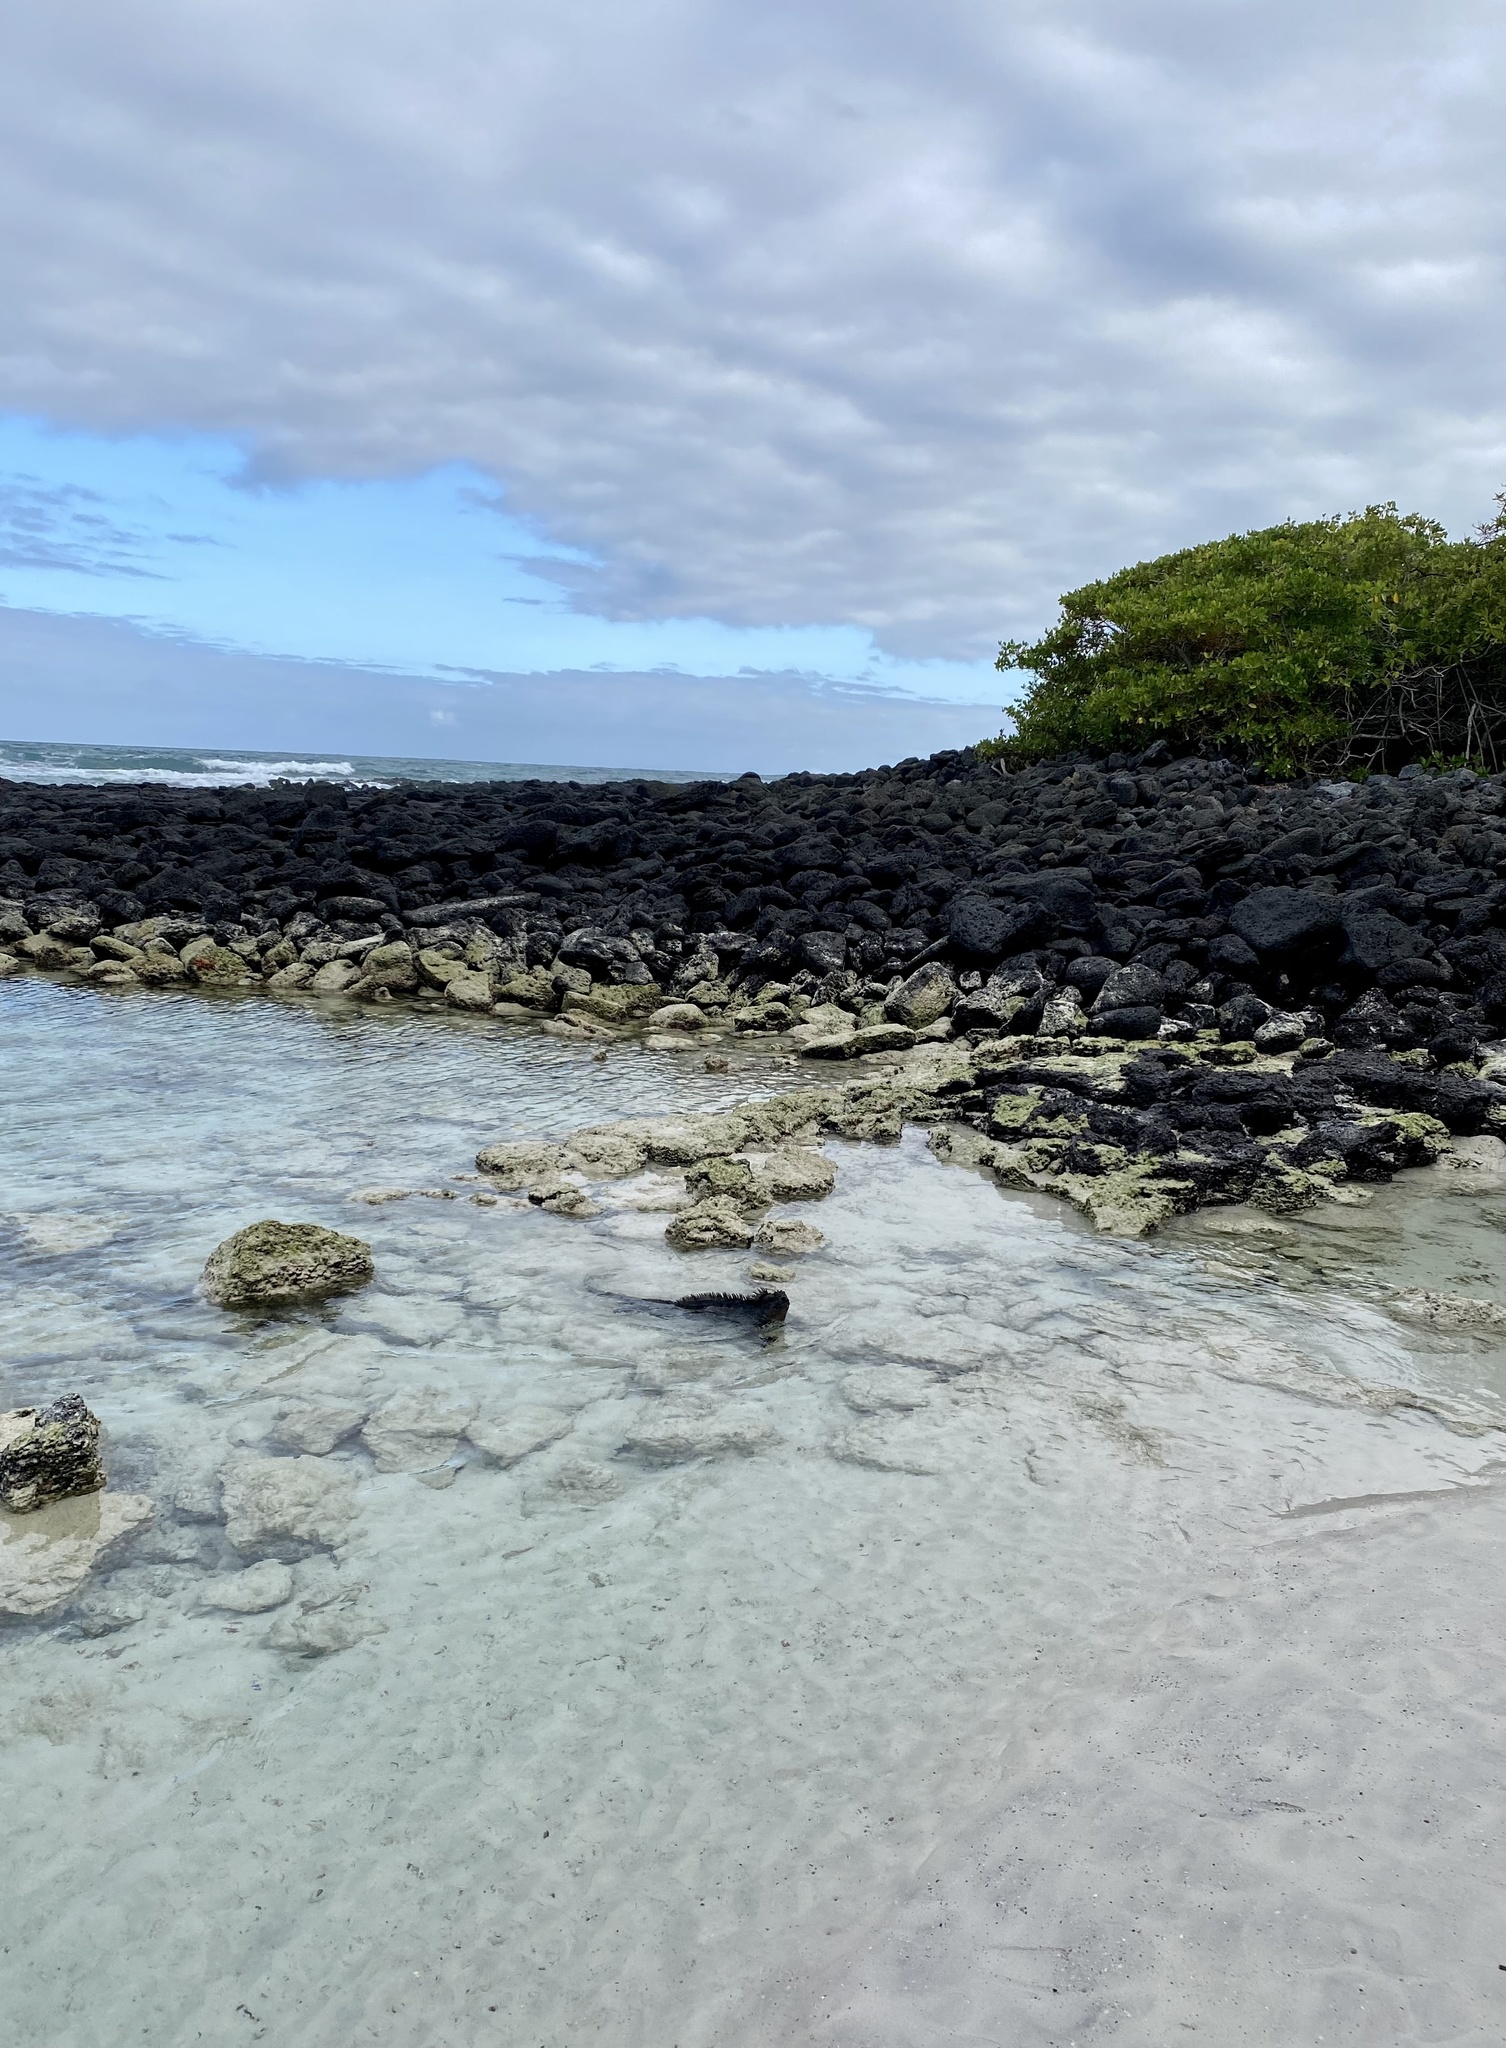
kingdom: Animalia
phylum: Chordata
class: Squamata
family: Iguanidae
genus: Amblyrhynchus
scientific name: Amblyrhynchus cristatus
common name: Marine iguana
